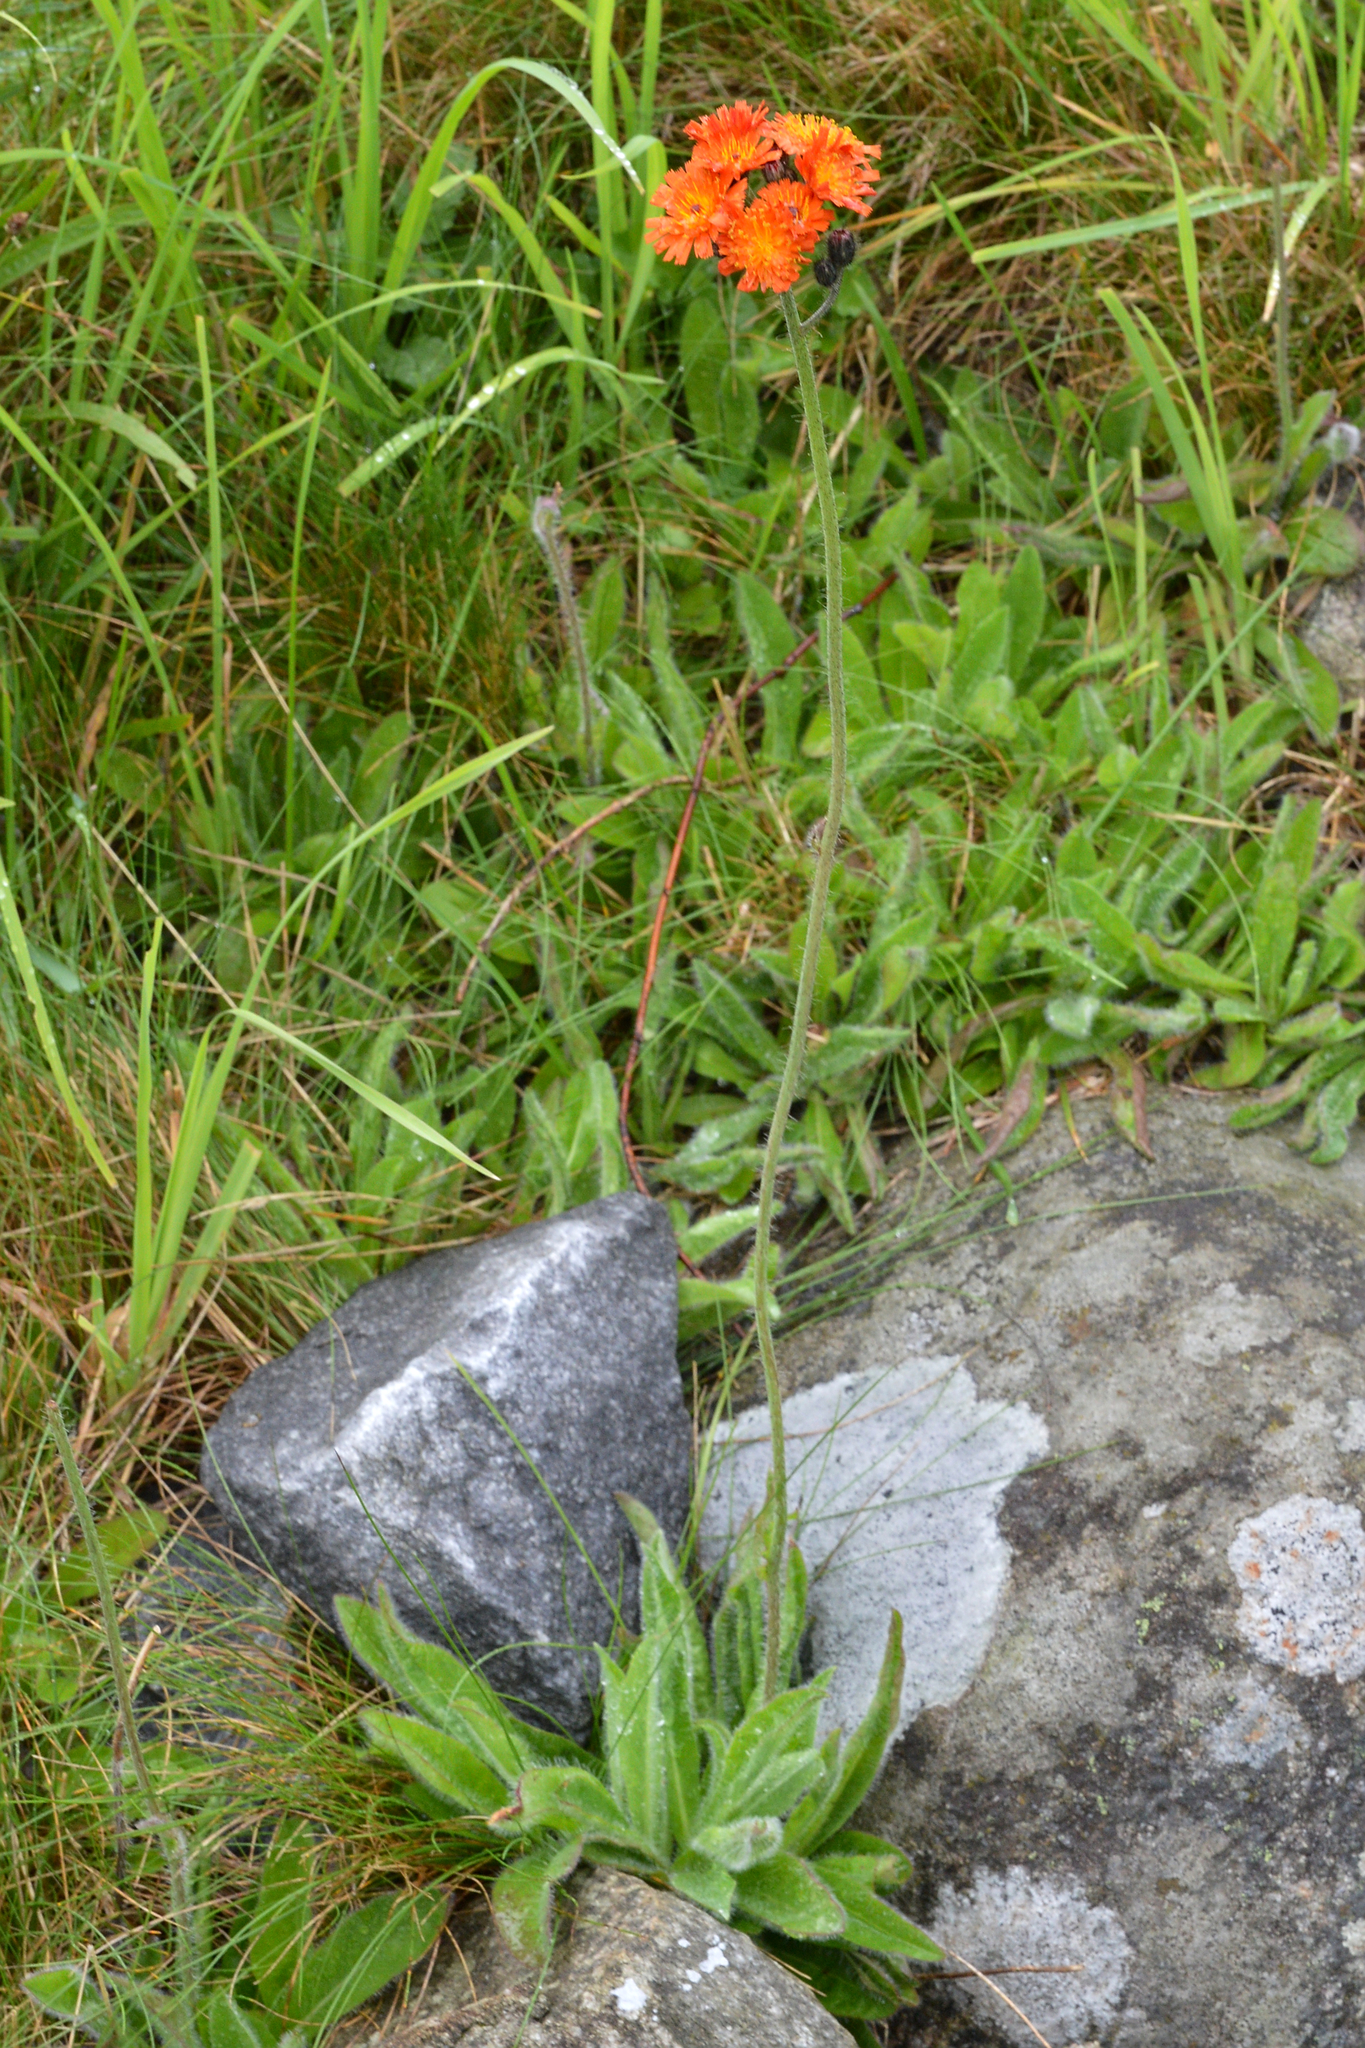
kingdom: Plantae
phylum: Tracheophyta
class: Magnoliopsida
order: Asterales
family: Asteraceae
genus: Pilosella
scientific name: Pilosella aurantiaca
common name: Fox-and-cubs
